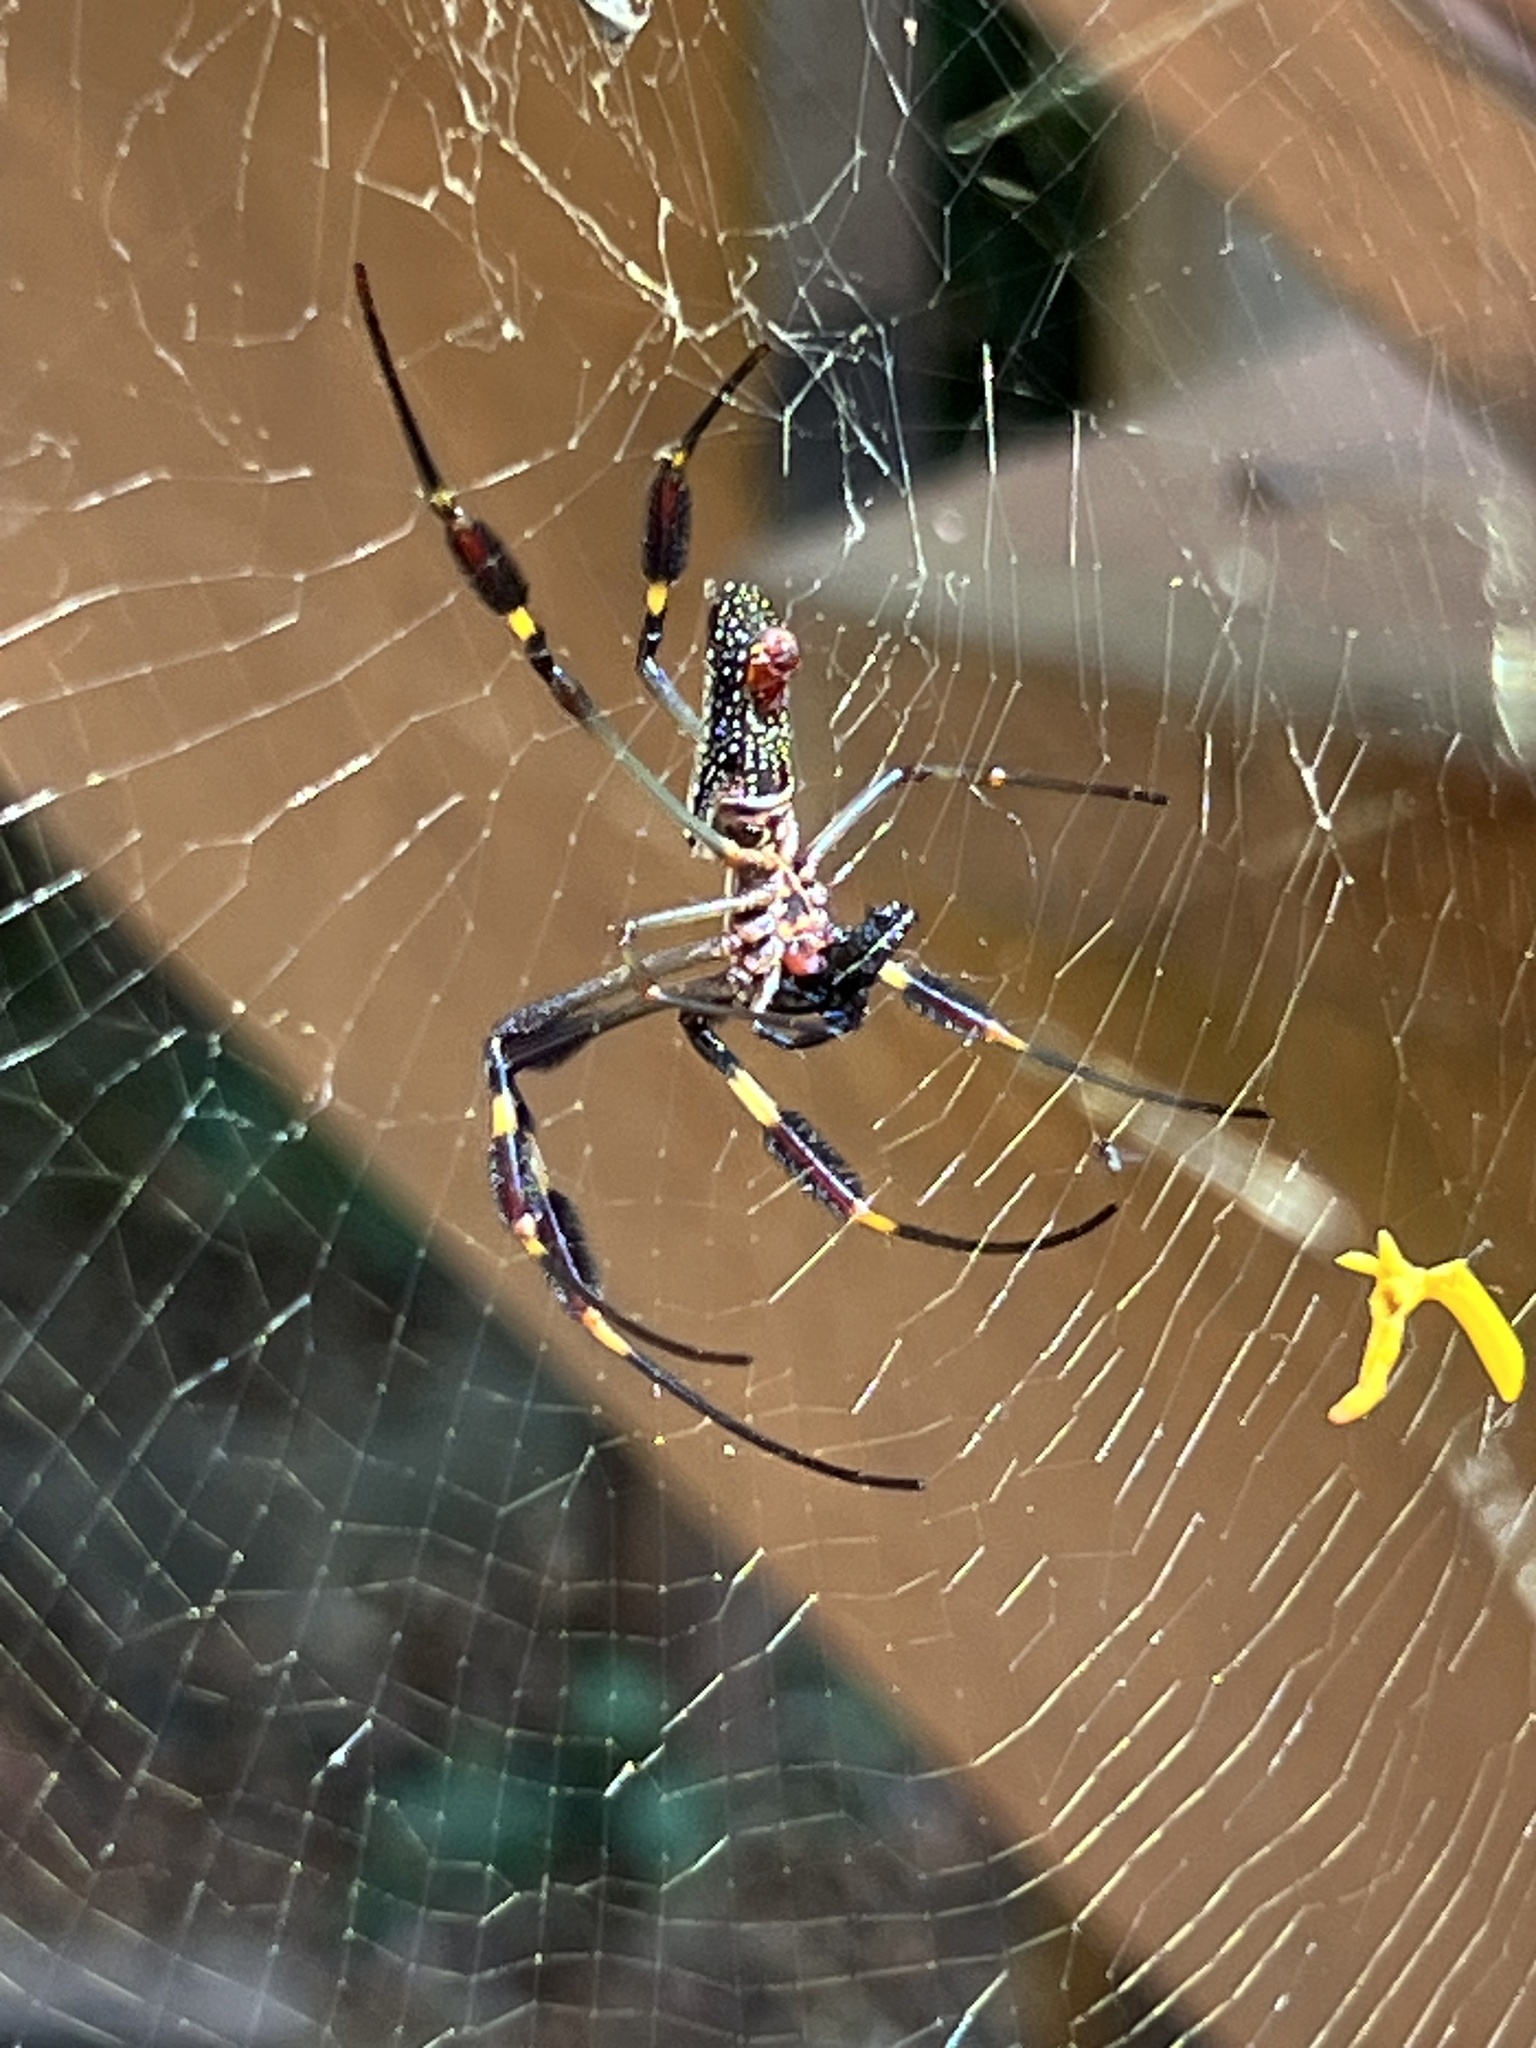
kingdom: Animalia
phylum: Arthropoda
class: Arachnida
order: Araneae
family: Araneidae
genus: Trichonephila
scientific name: Trichonephila clavipes
